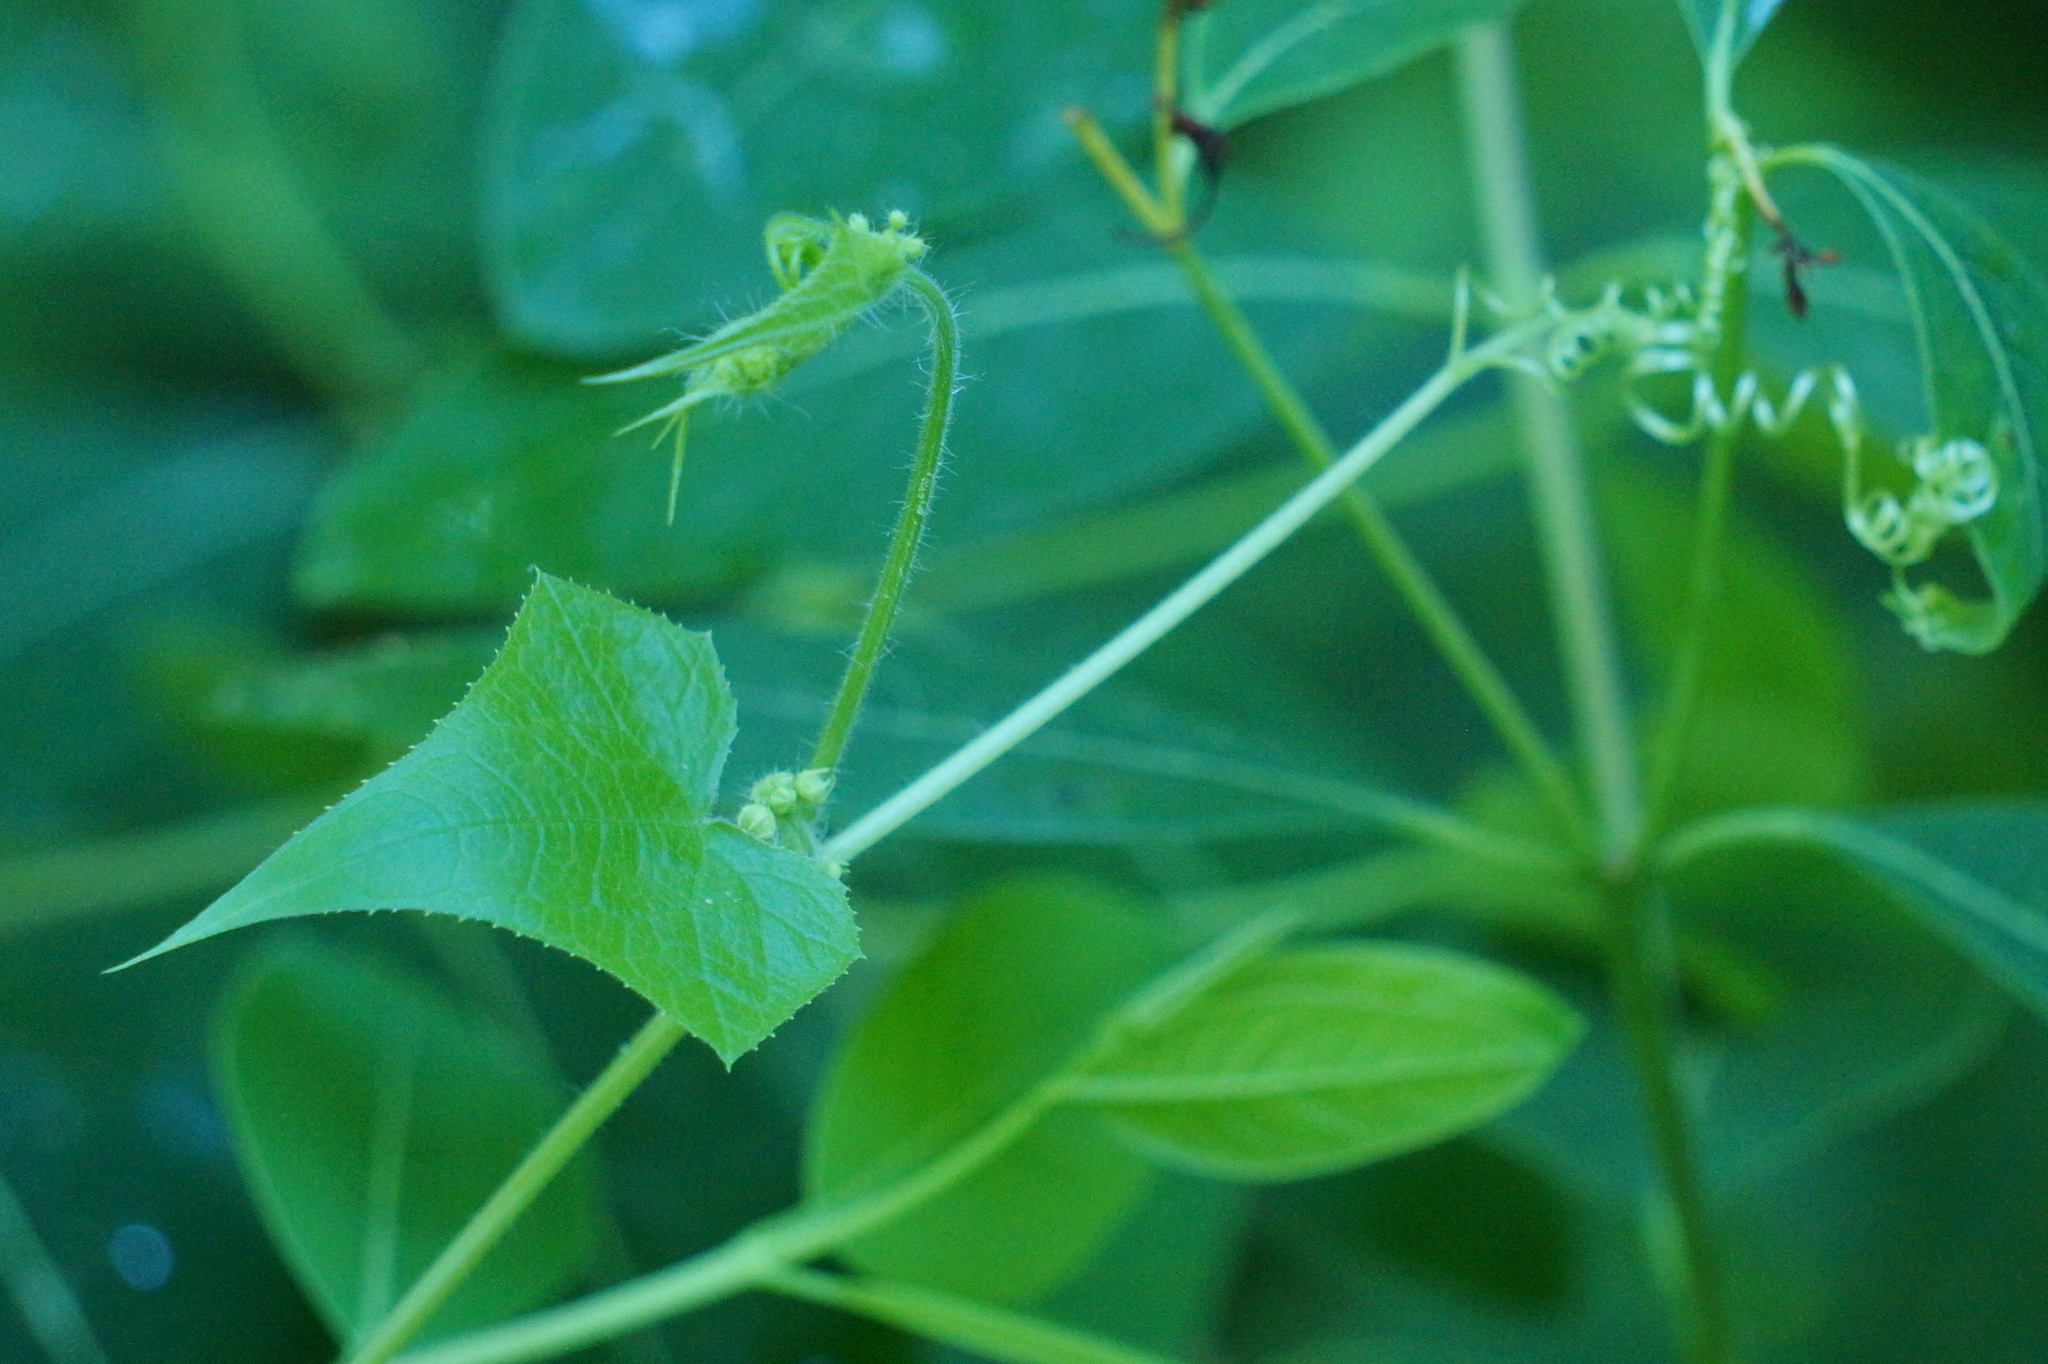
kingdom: Plantae
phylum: Tracheophyta
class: Magnoliopsida
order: Cucurbitales
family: Cucurbitaceae
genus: Sicyos
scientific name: Sicyos angulatus
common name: Angled burr cucumber
